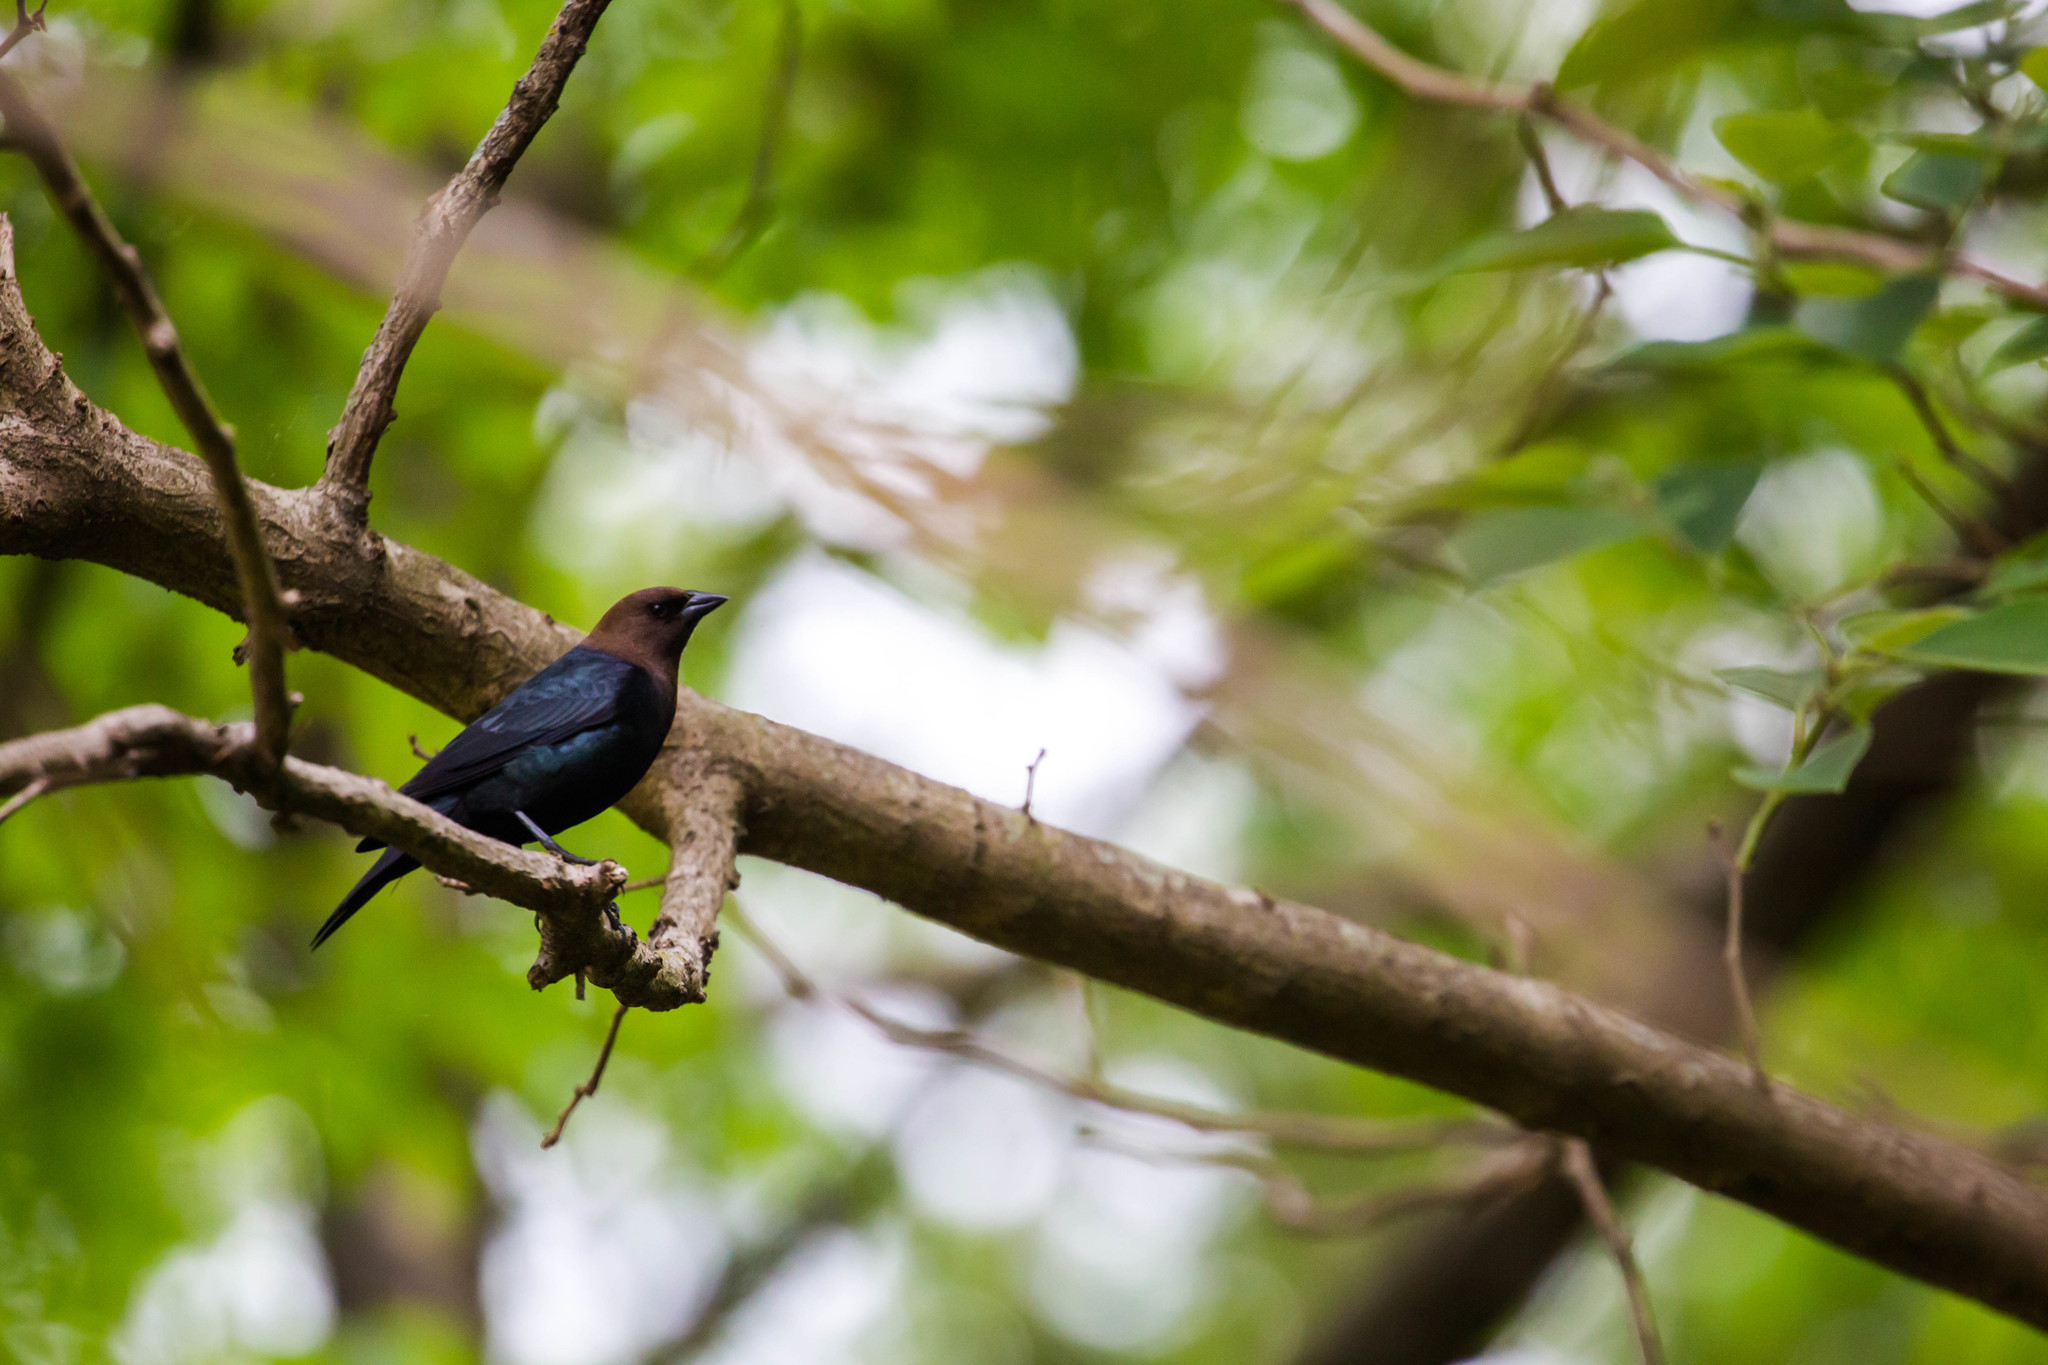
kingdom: Animalia
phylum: Chordata
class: Aves
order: Passeriformes
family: Icteridae
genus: Molothrus
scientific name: Molothrus ater
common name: Brown-headed cowbird
